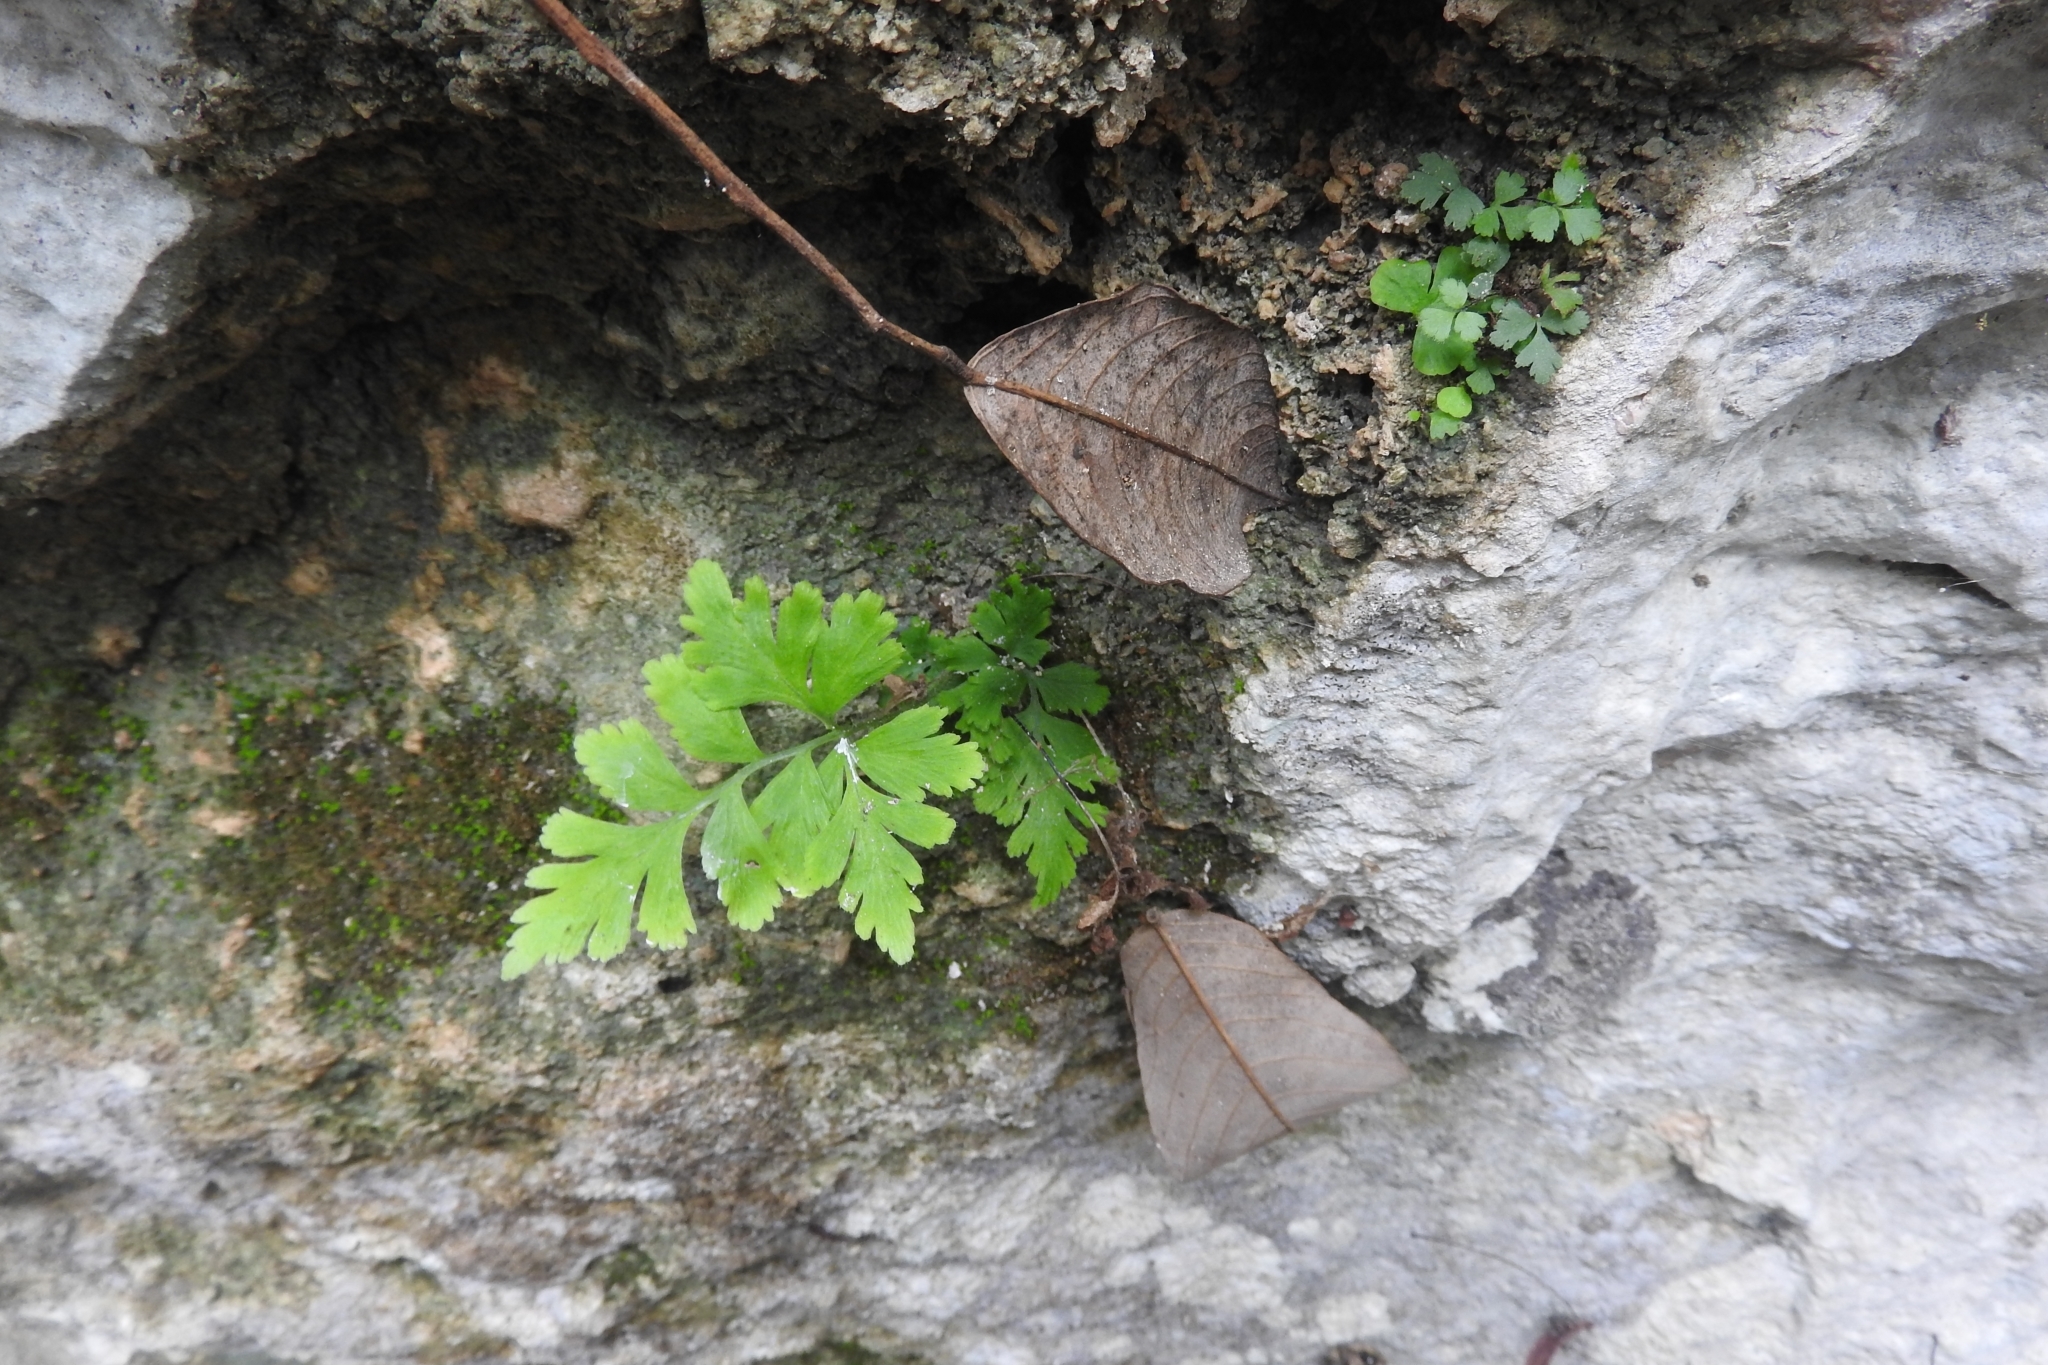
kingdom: Plantae
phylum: Tracheophyta
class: Polypodiopsida
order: Schizaeales
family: Anemiaceae
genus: Anemia
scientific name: Anemia adiantifolia
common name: Pine fern
